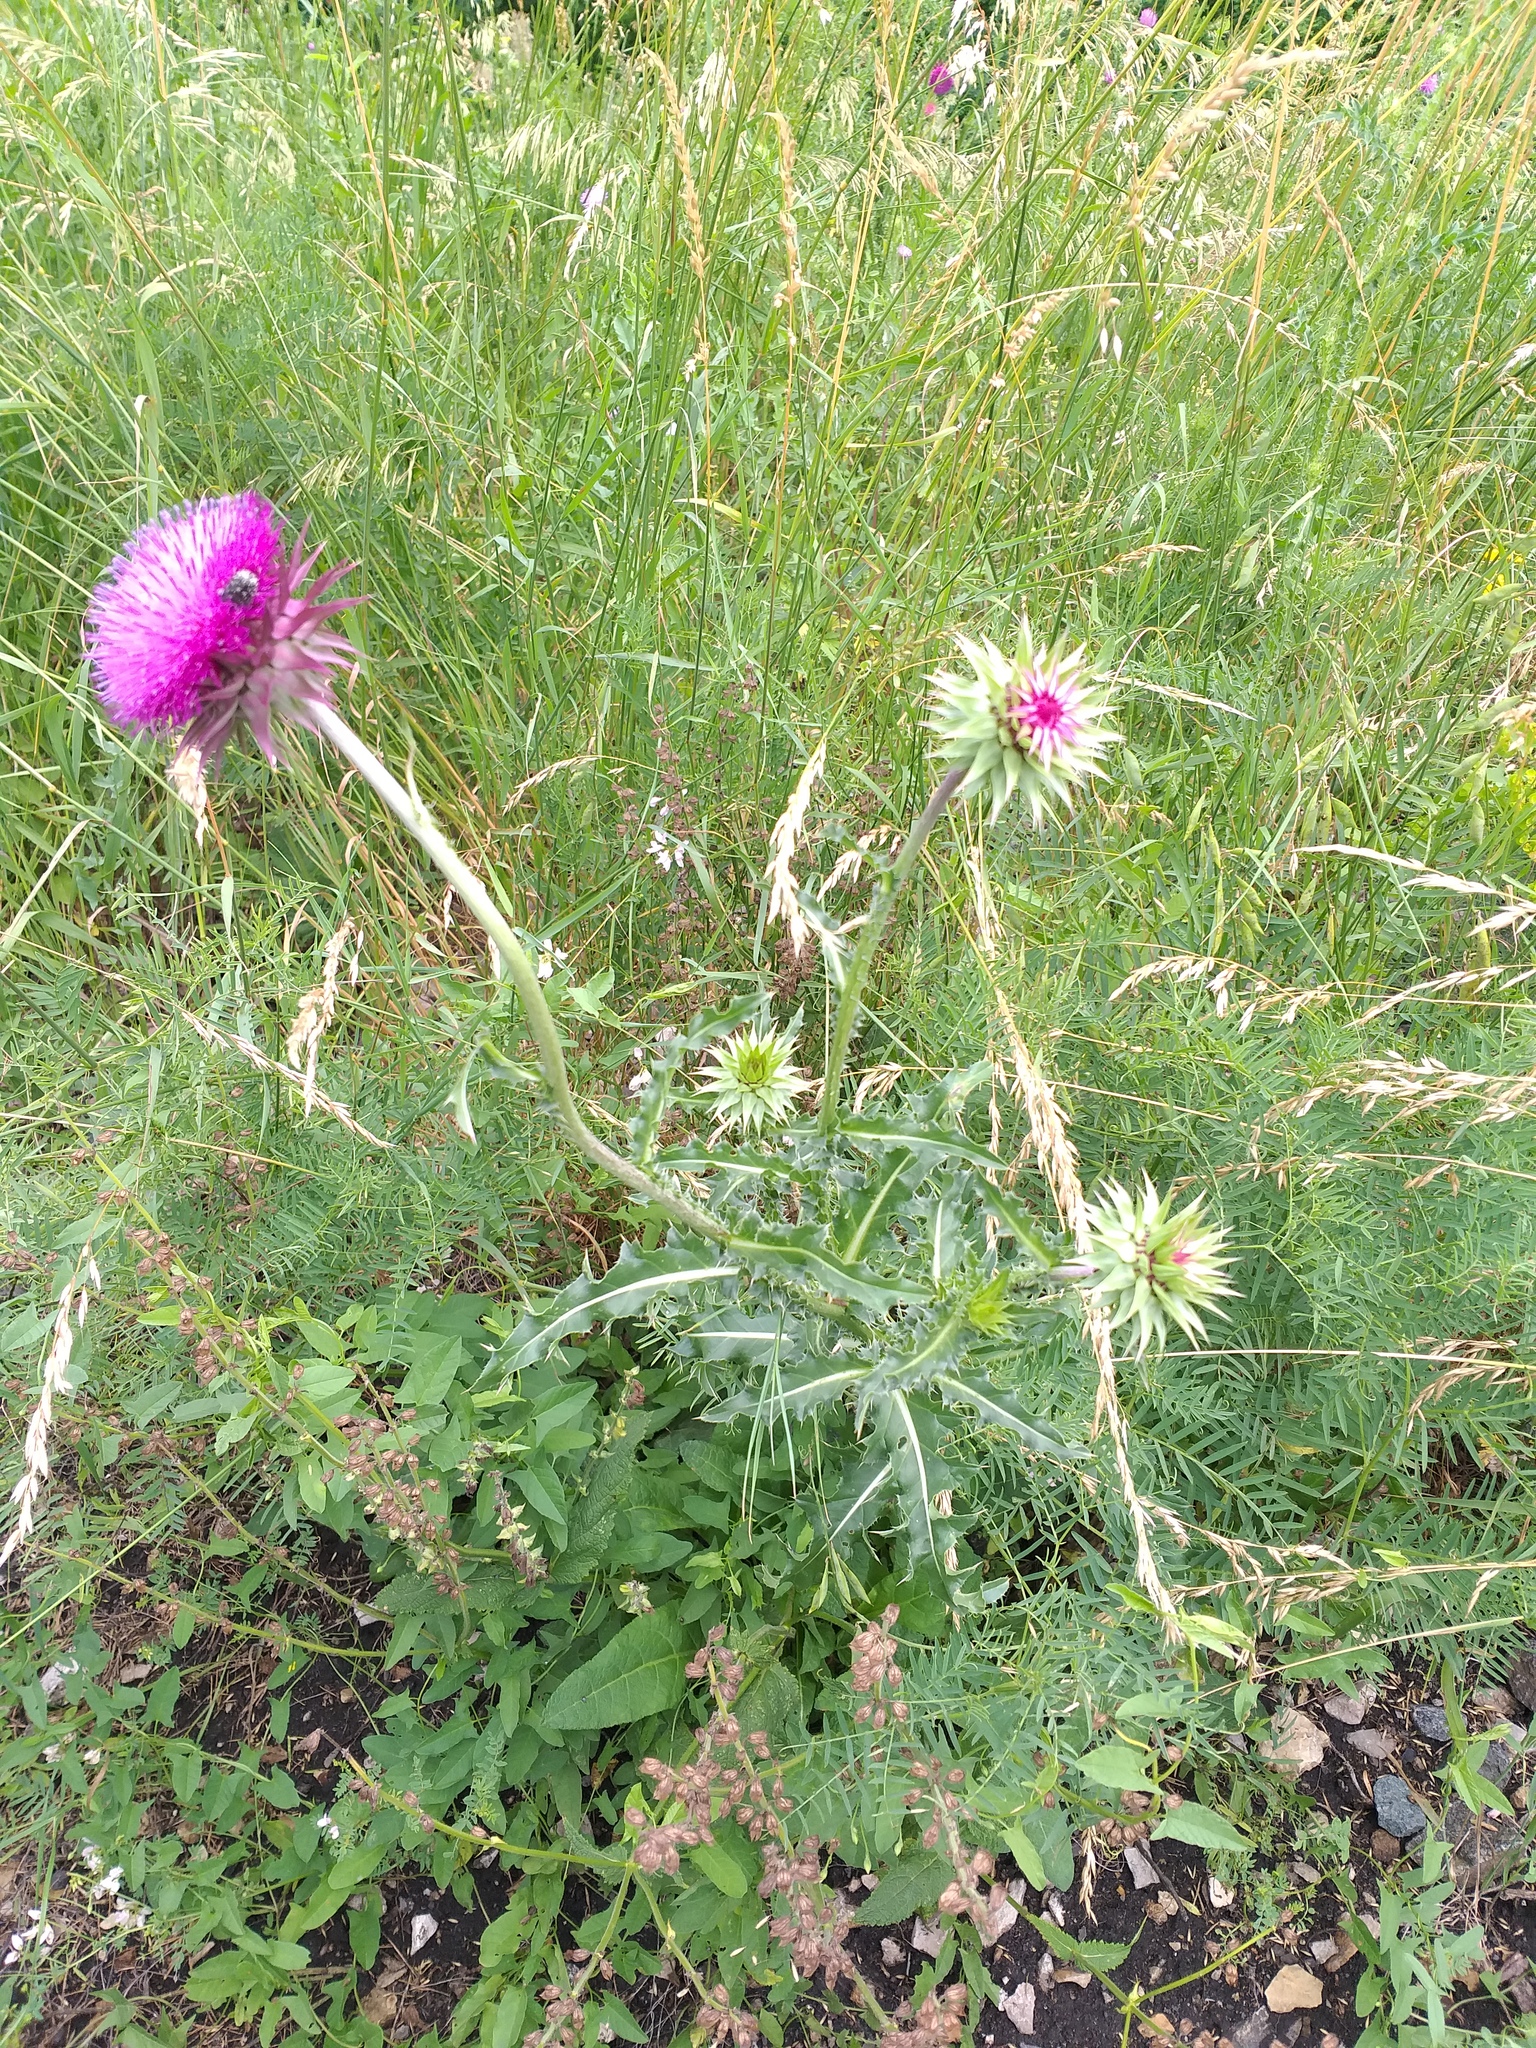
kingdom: Plantae
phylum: Tracheophyta
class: Magnoliopsida
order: Asterales
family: Asteraceae
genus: Carduus
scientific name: Carduus nutans
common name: Musk thistle
